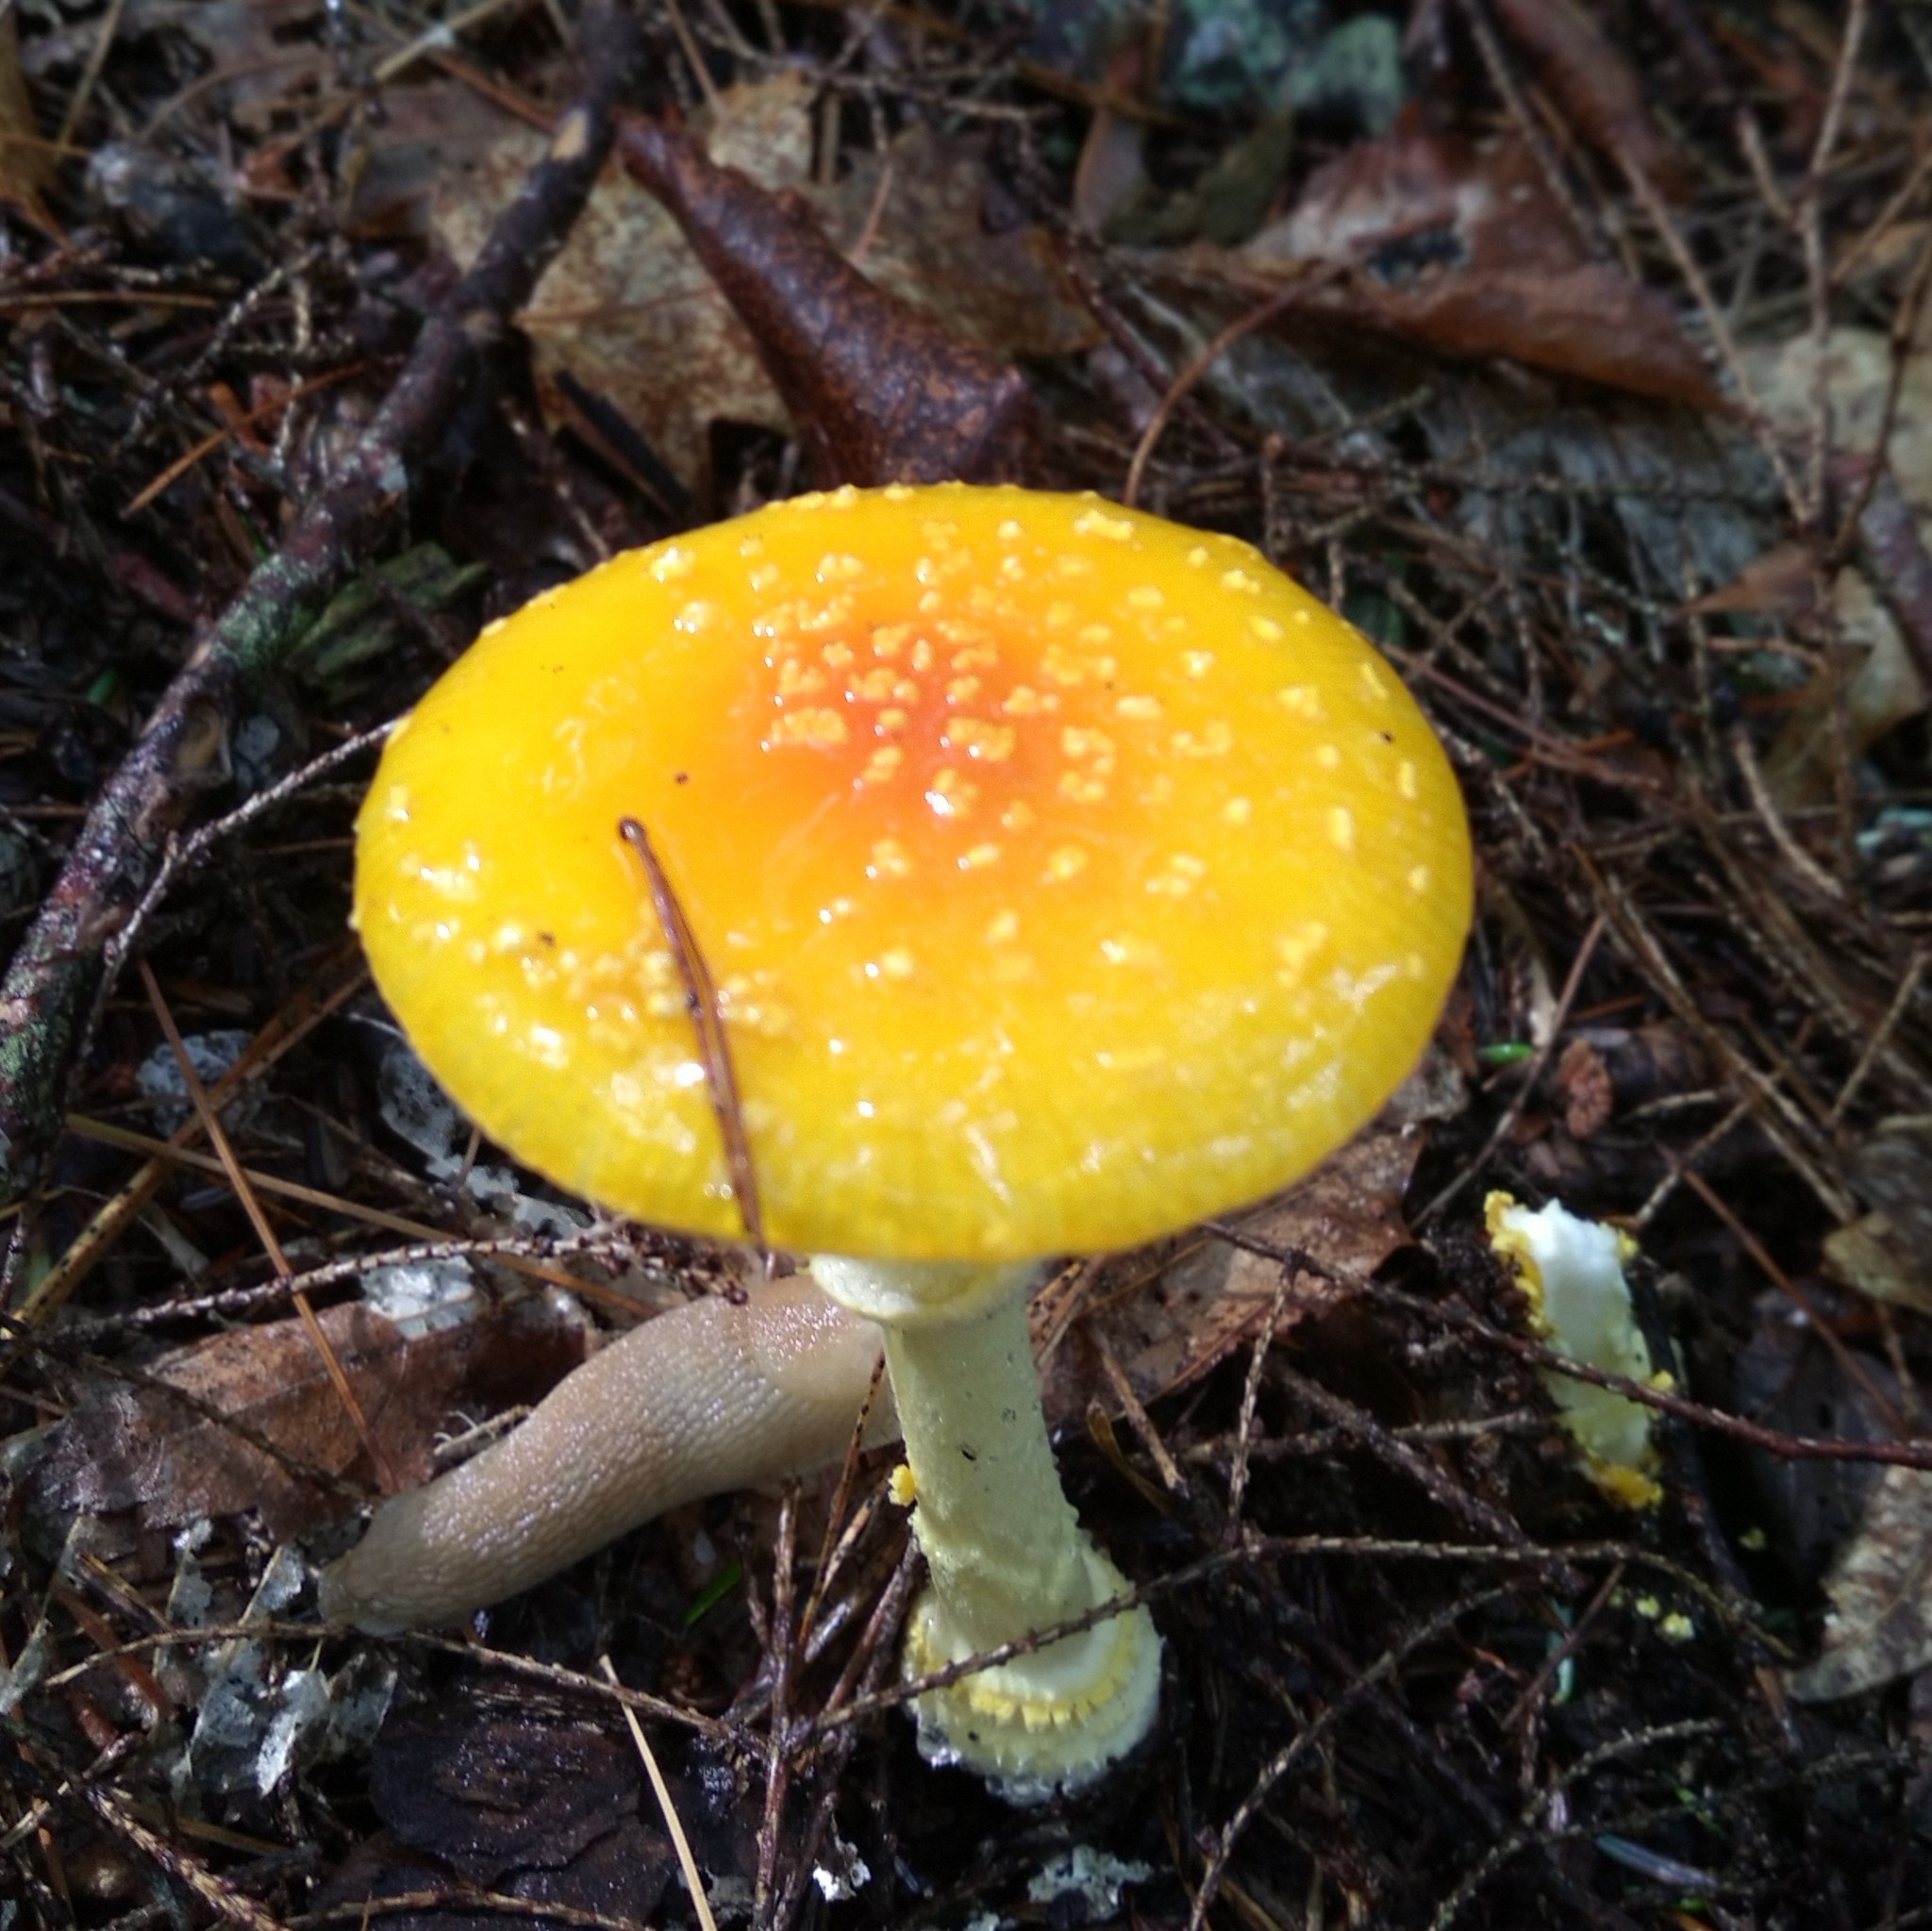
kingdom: Fungi
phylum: Basidiomycota
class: Agaricomycetes
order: Agaricales
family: Amanitaceae
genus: Amanita
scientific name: Amanita frostiana
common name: Frost's amanita
